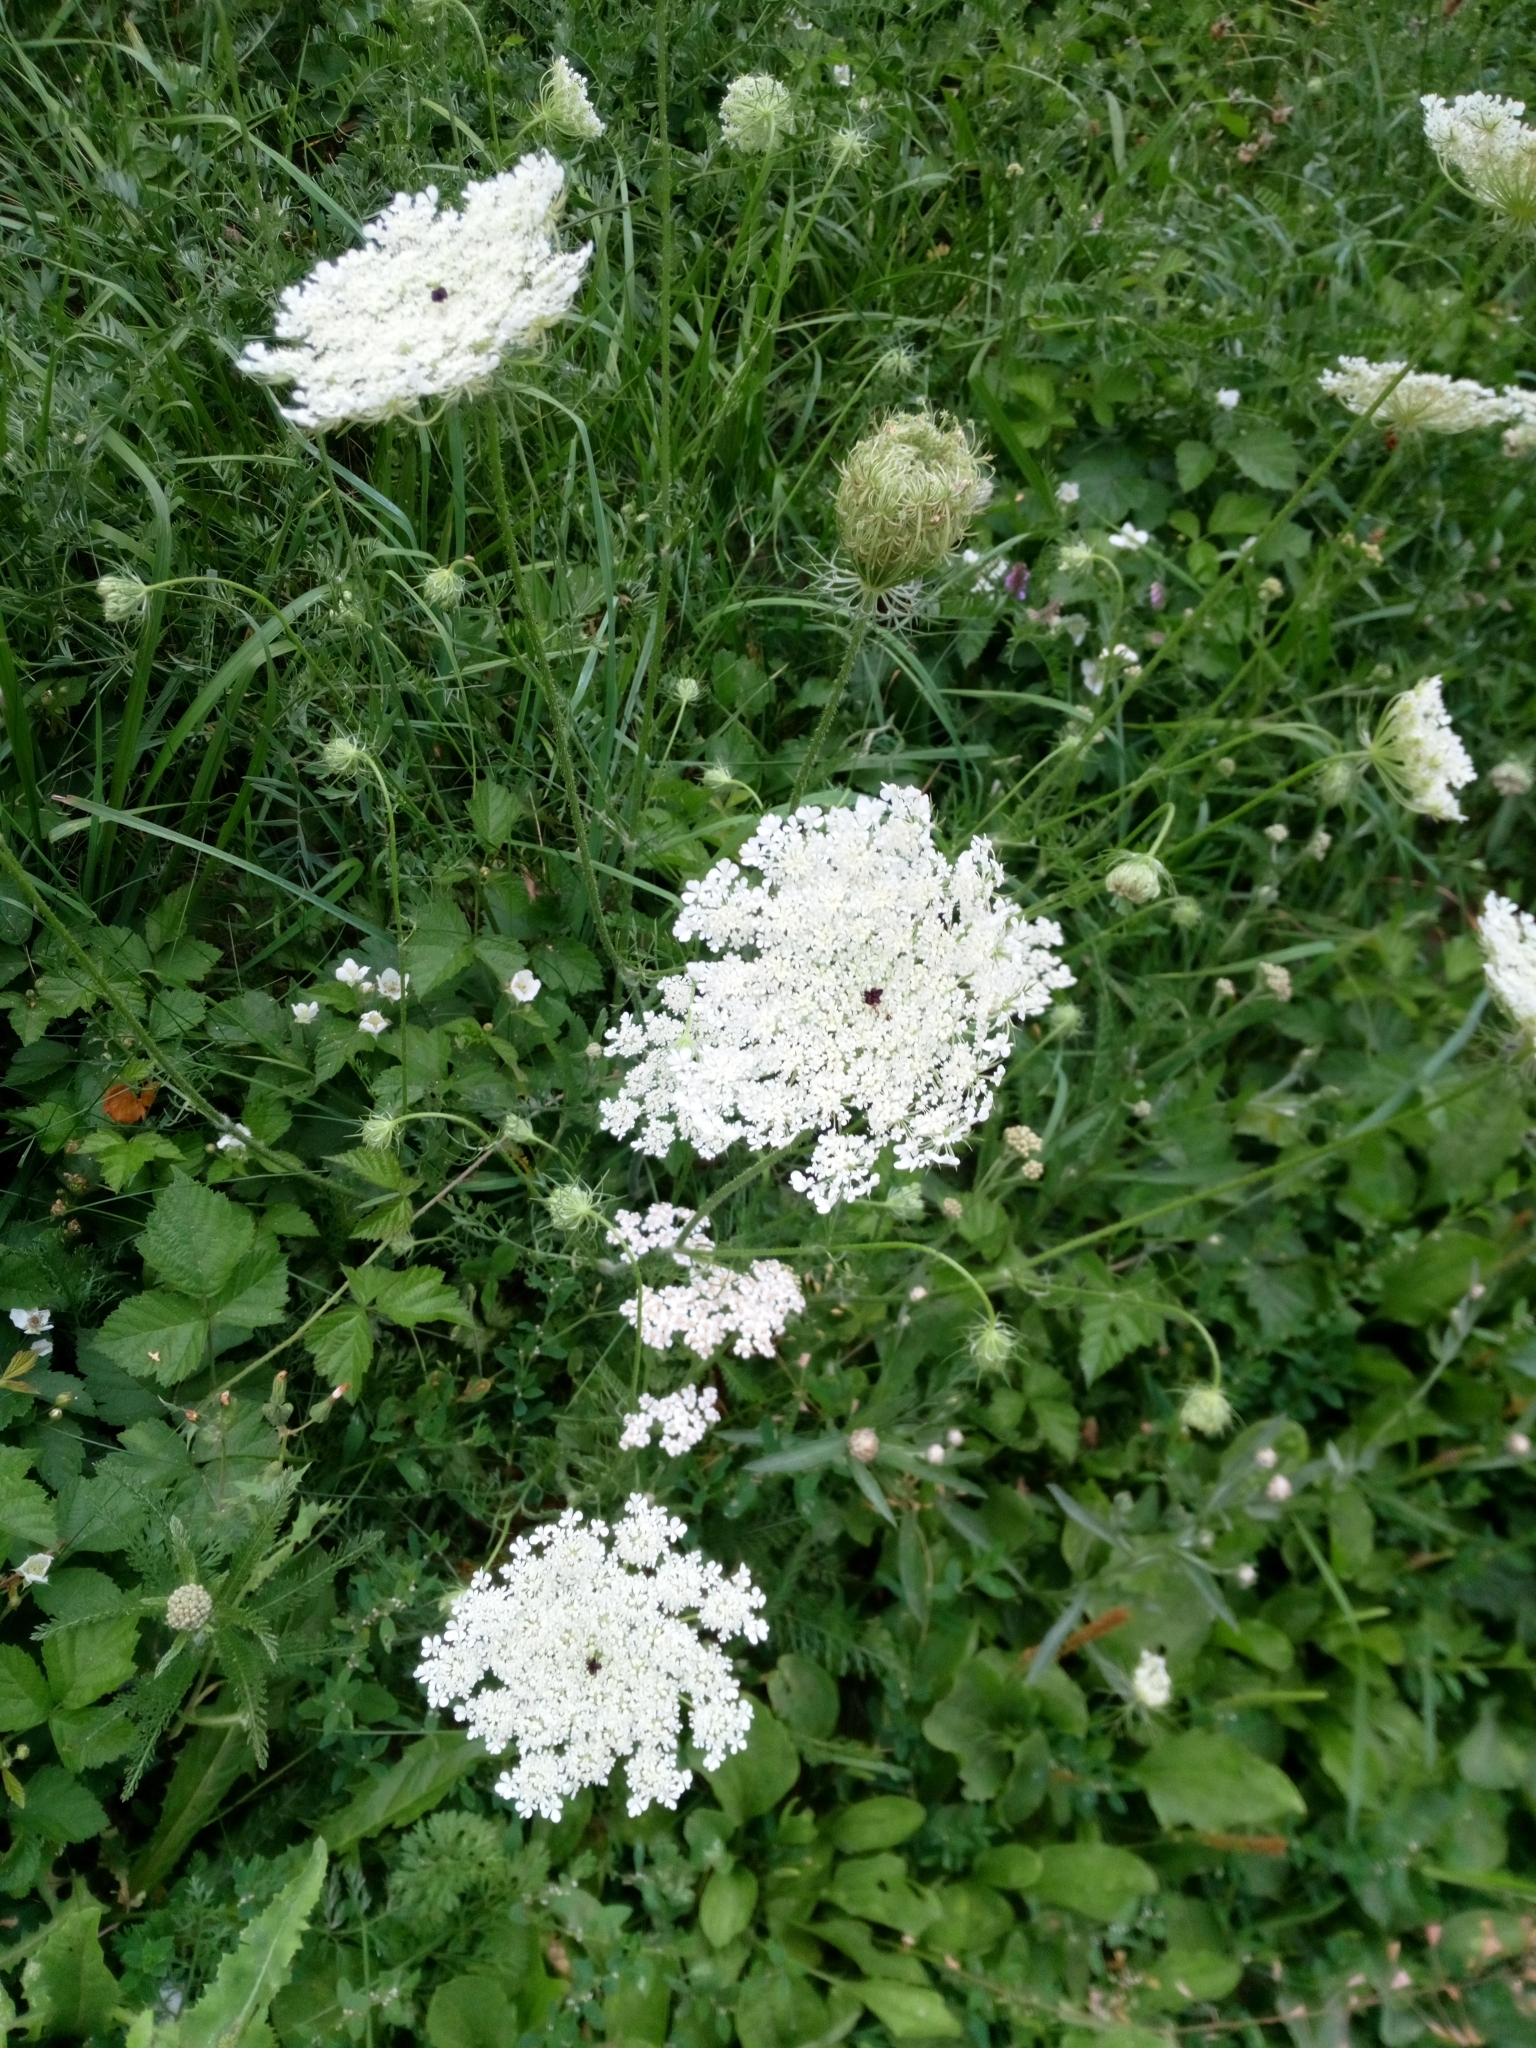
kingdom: Plantae
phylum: Tracheophyta
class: Magnoliopsida
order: Apiales
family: Apiaceae
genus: Daucus
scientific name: Daucus carota
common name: Wild carrot
